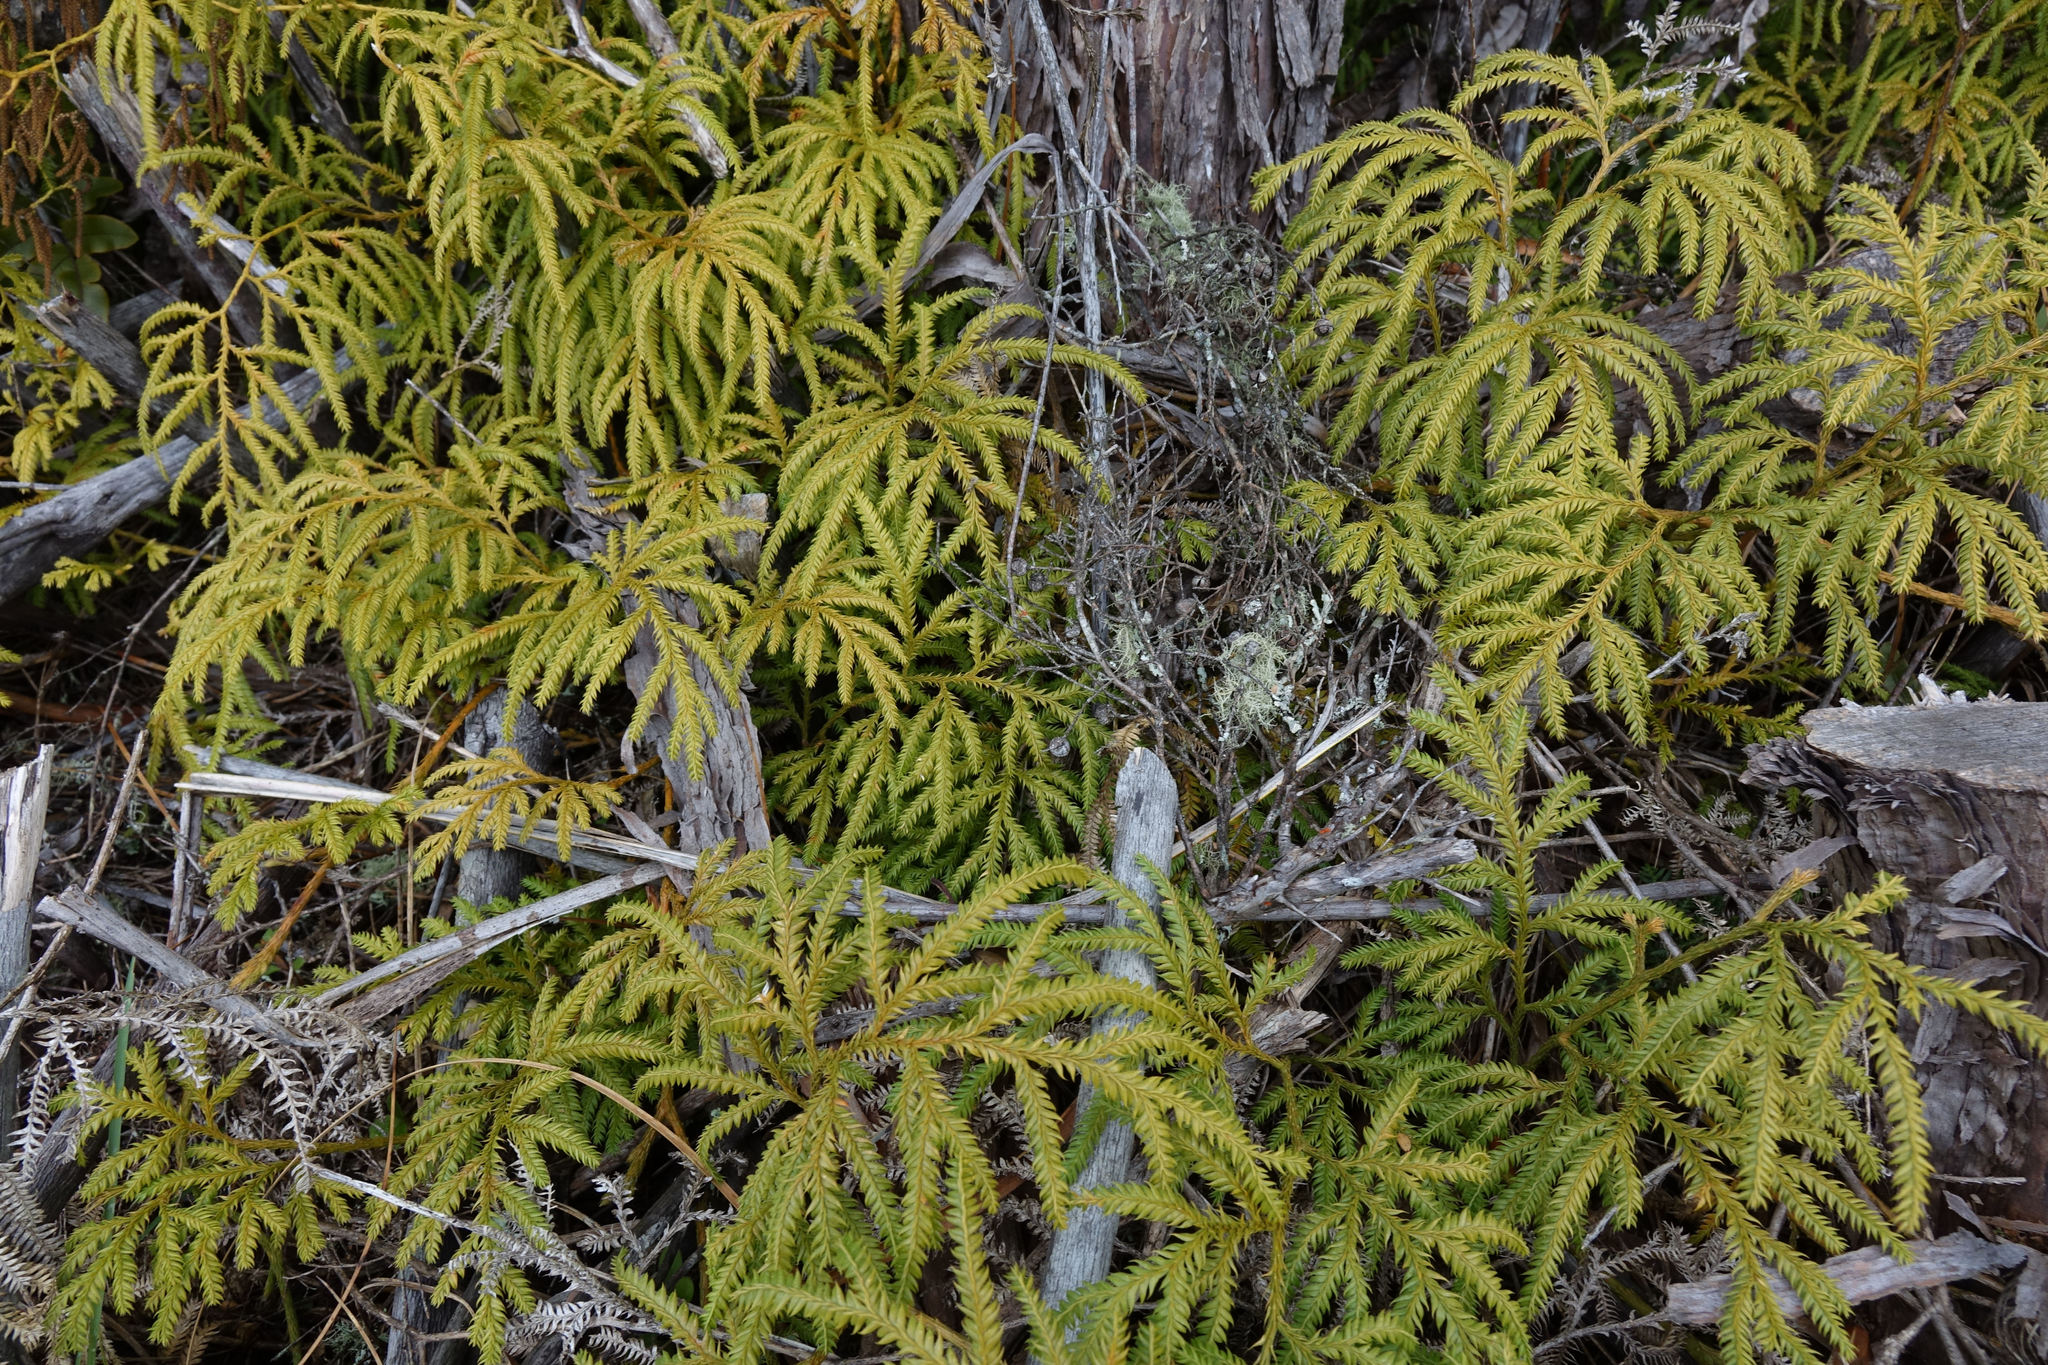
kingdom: Plantae
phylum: Tracheophyta
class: Lycopodiopsida
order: Lycopodiales
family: Lycopodiaceae
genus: Lycopodium
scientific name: Lycopodium volubile
